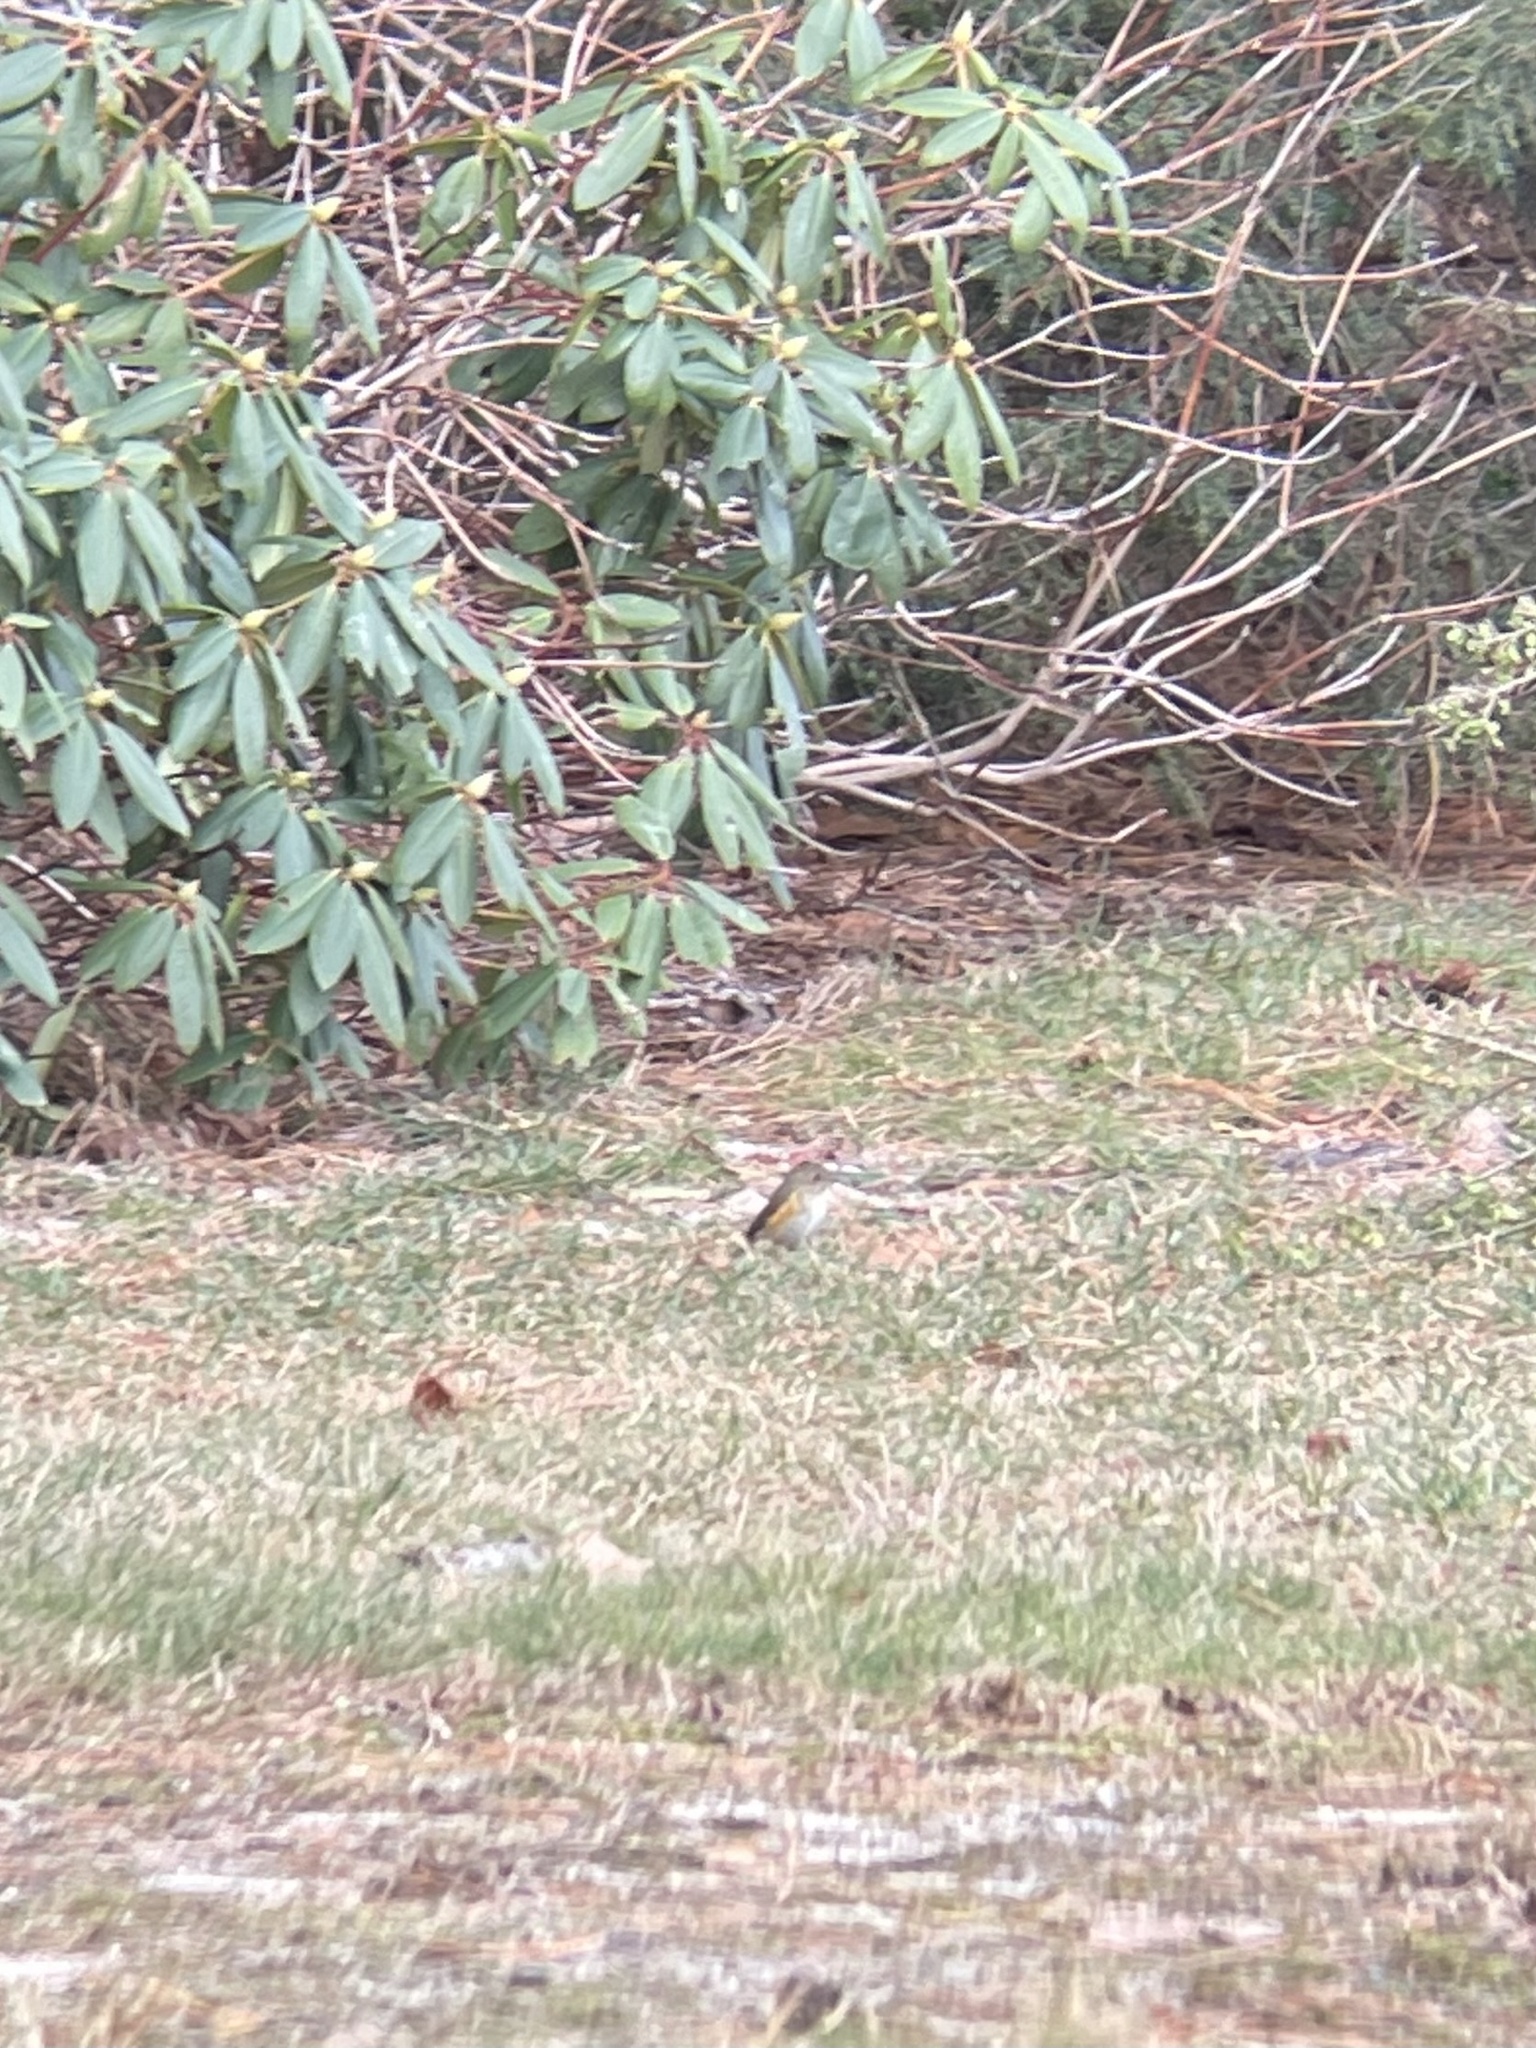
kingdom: Animalia
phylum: Chordata
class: Aves
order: Passeriformes
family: Muscicapidae
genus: Tarsiger
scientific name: Tarsiger cyanurus
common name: Red-flanked bluetail
